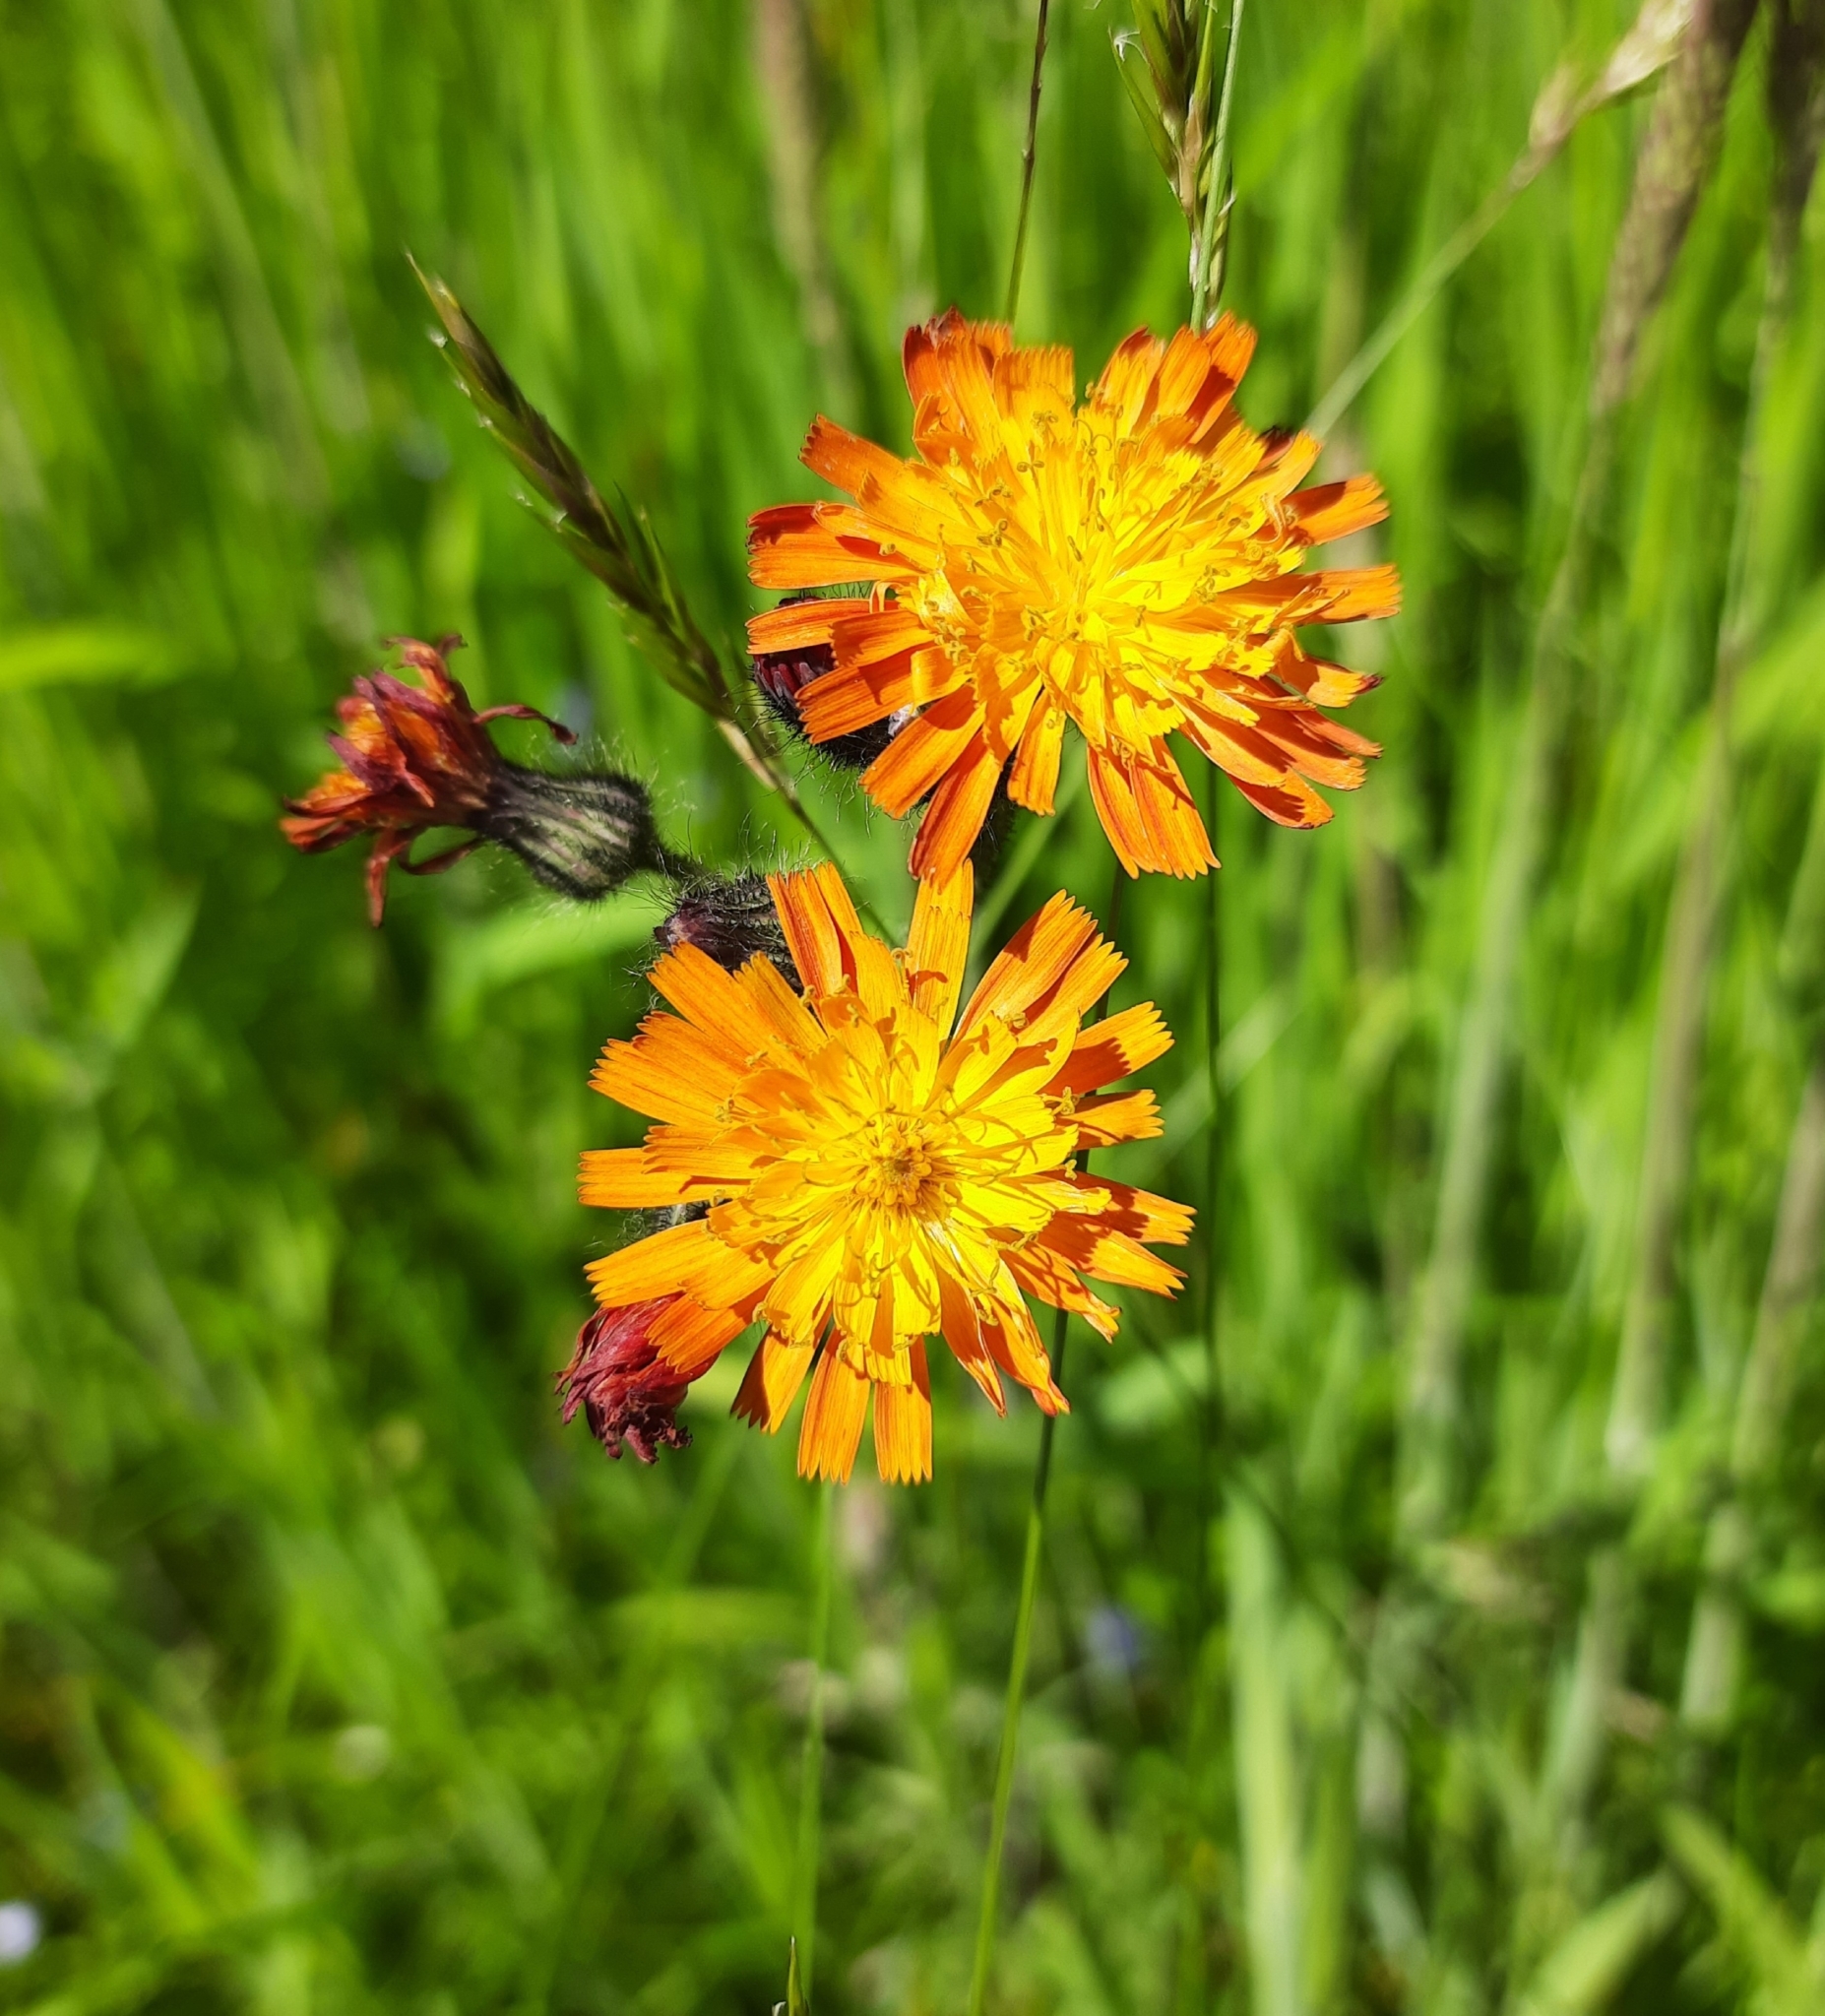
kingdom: Plantae
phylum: Tracheophyta
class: Magnoliopsida
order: Asterales
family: Asteraceae
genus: Pilosella
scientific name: Pilosella aurantiaca
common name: Fox-and-cubs
